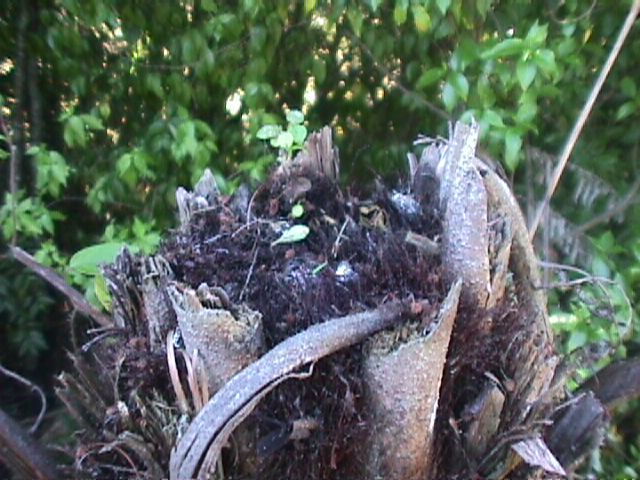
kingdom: Plantae
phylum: Tracheophyta
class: Polypodiopsida
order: Cyatheales
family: Cyatheaceae
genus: Alsophila
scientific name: Alsophila dealbata
